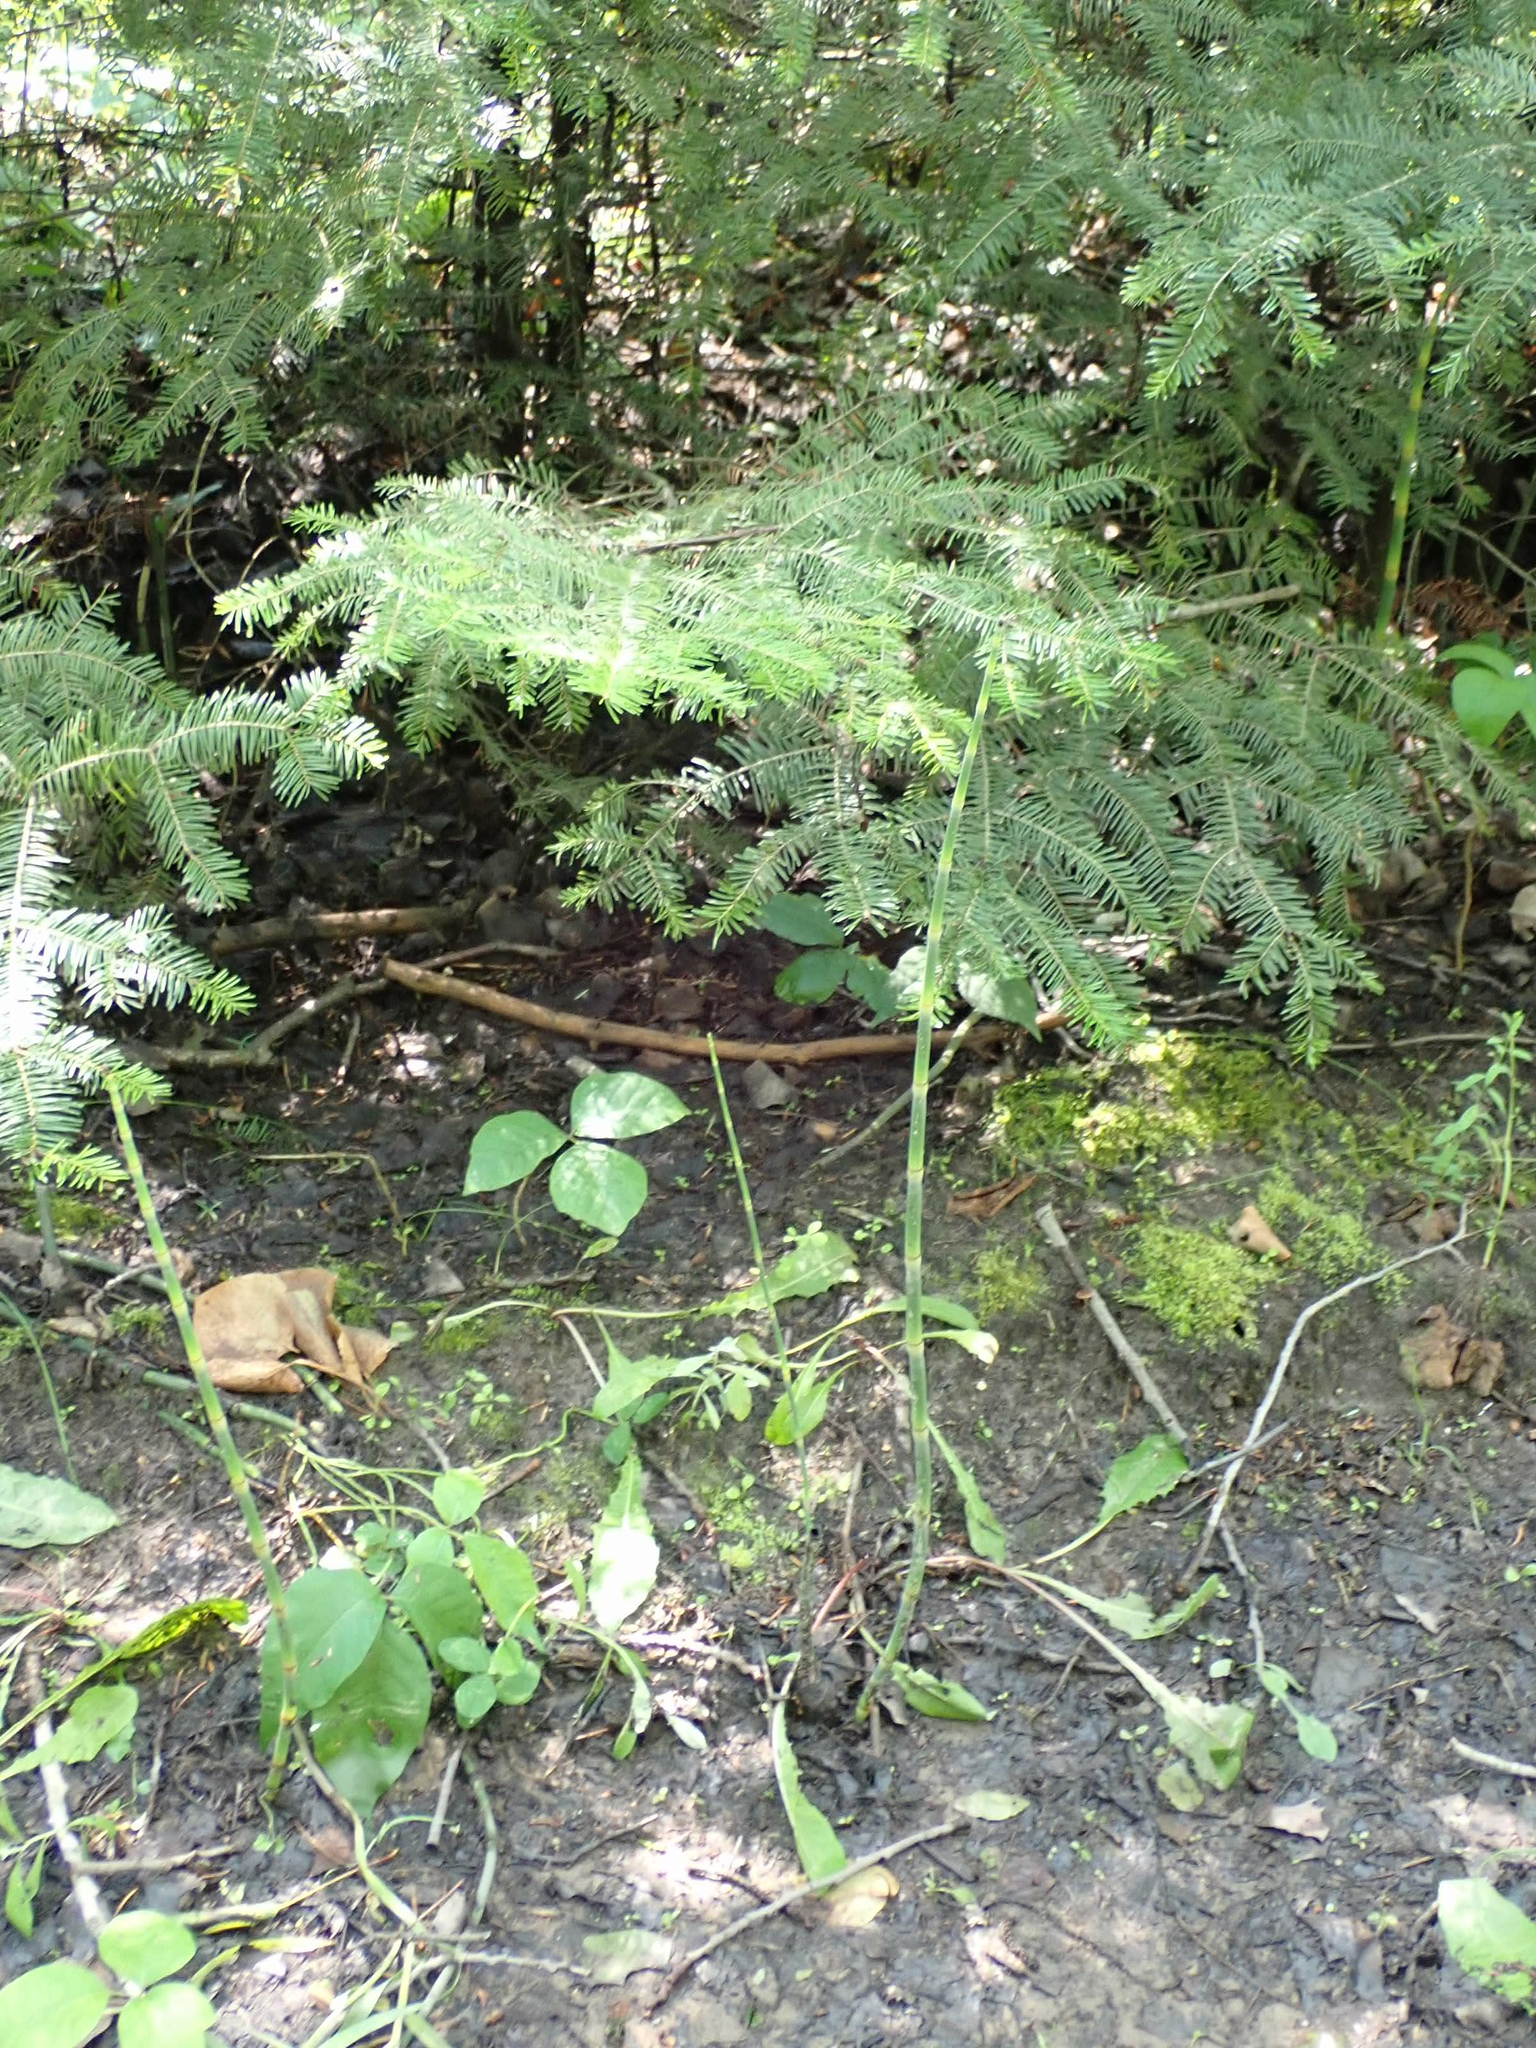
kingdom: Plantae
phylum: Tracheophyta
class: Polypodiopsida
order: Equisetales
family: Equisetaceae
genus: Equisetum
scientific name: Equisetum laevigatum
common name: Smooth scouring-rush
